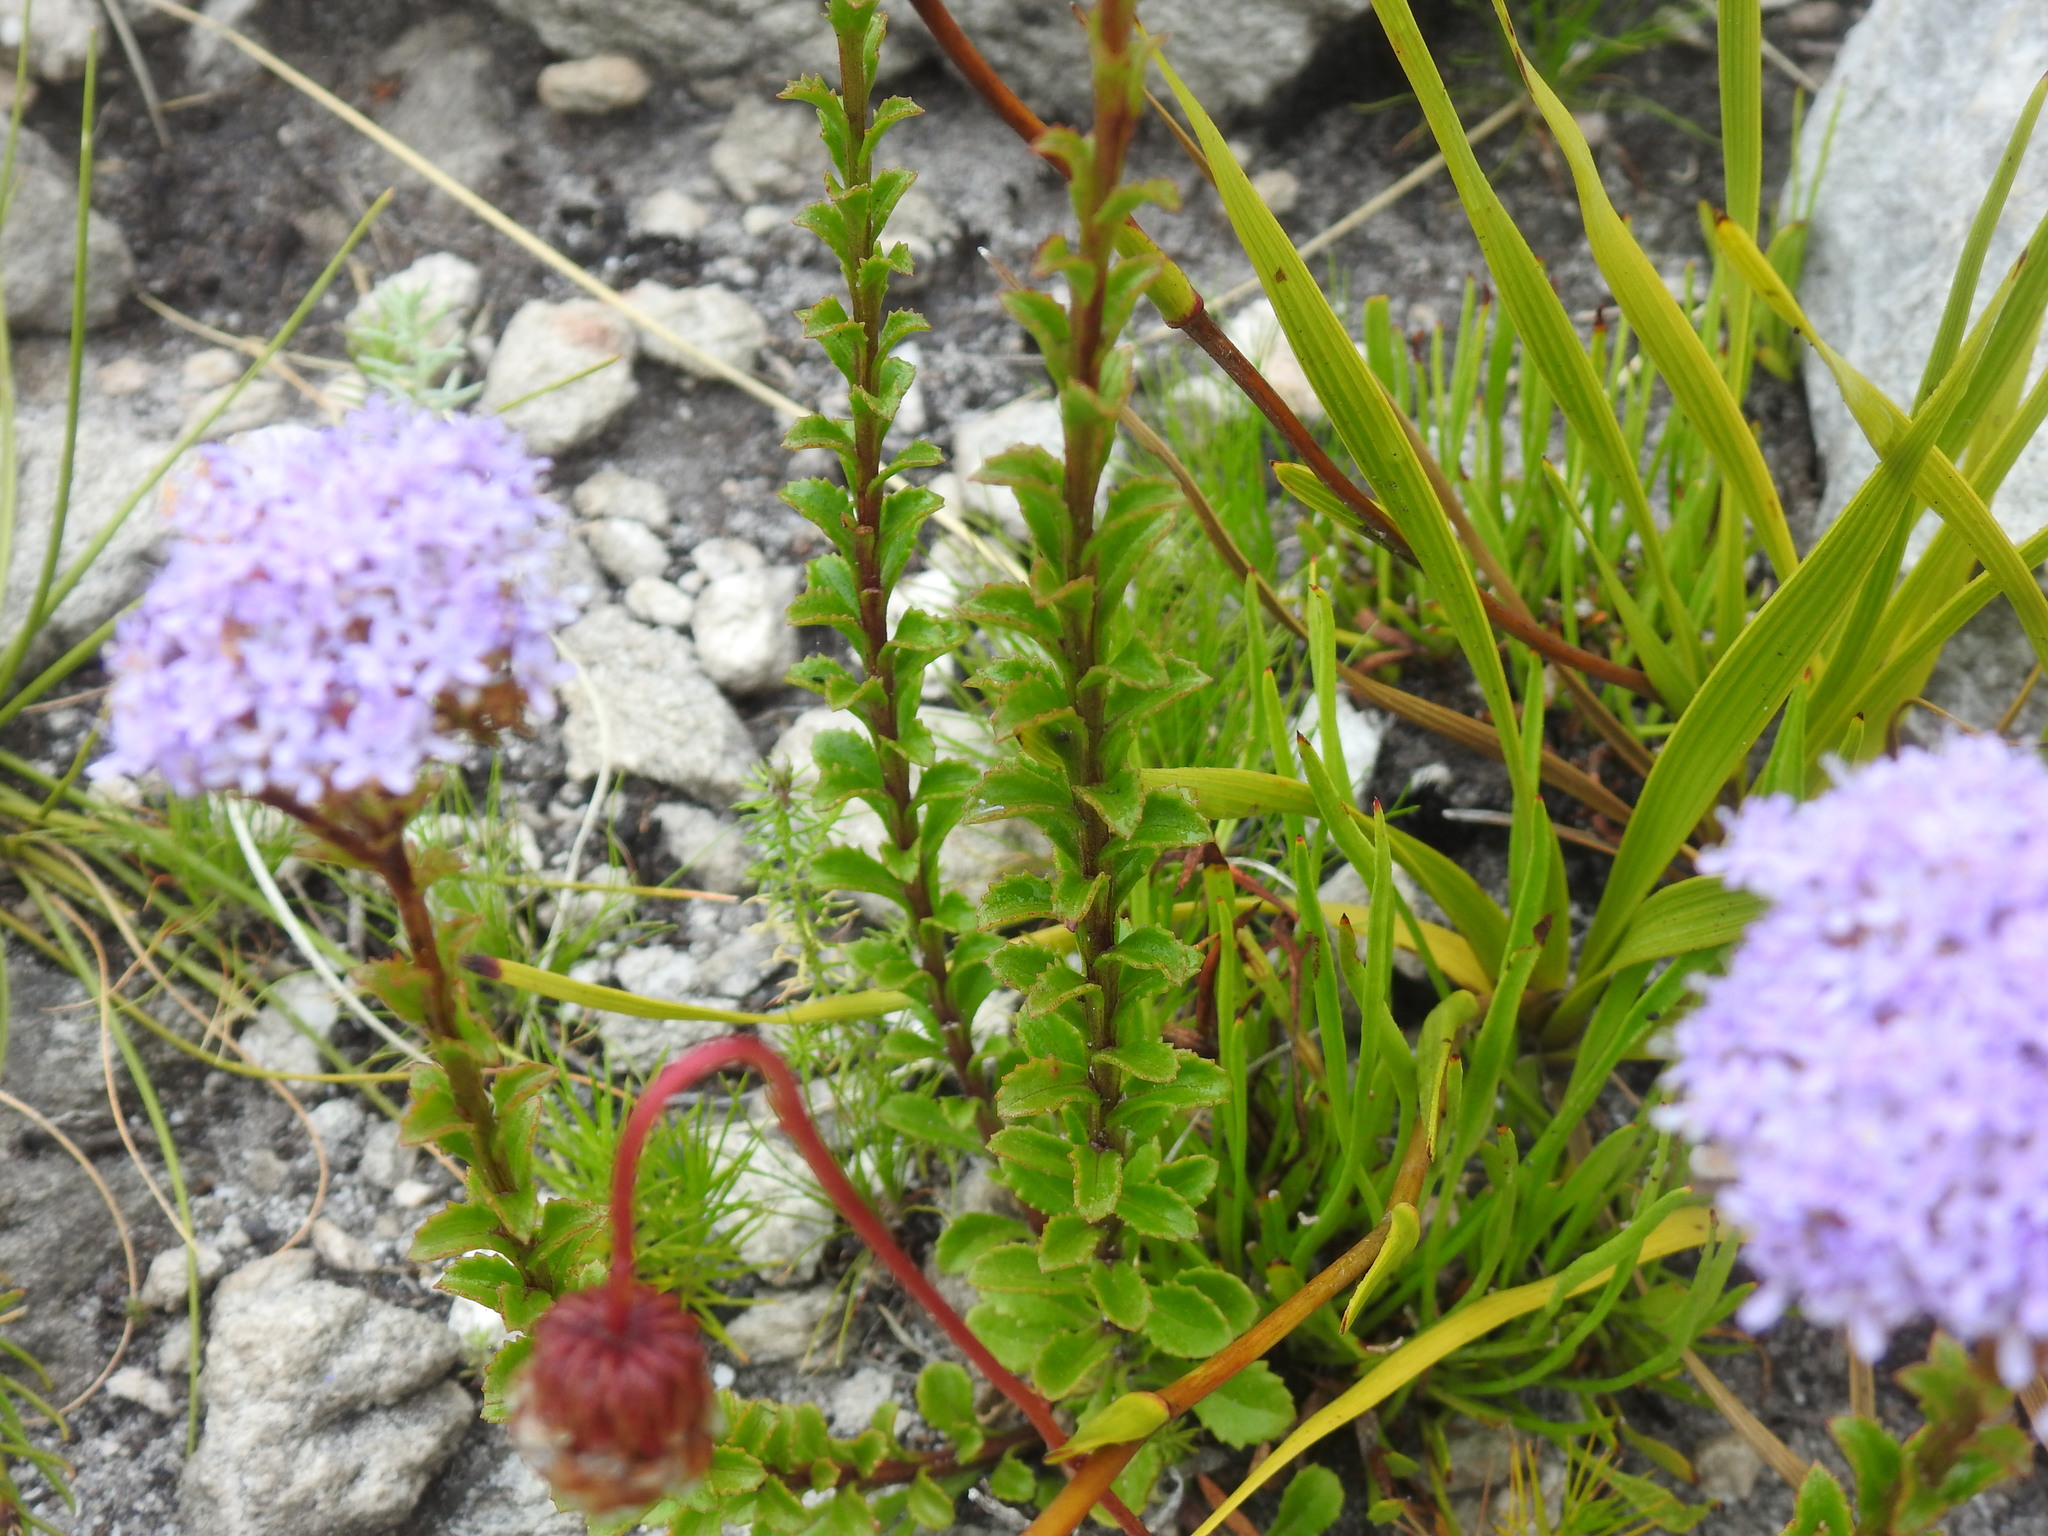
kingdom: Plantae
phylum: Tracheophyta
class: Magnoliopsida
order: Lamiales
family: Scrophulariaceae
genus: Pseudoselago
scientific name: Pseudoselago serrata
